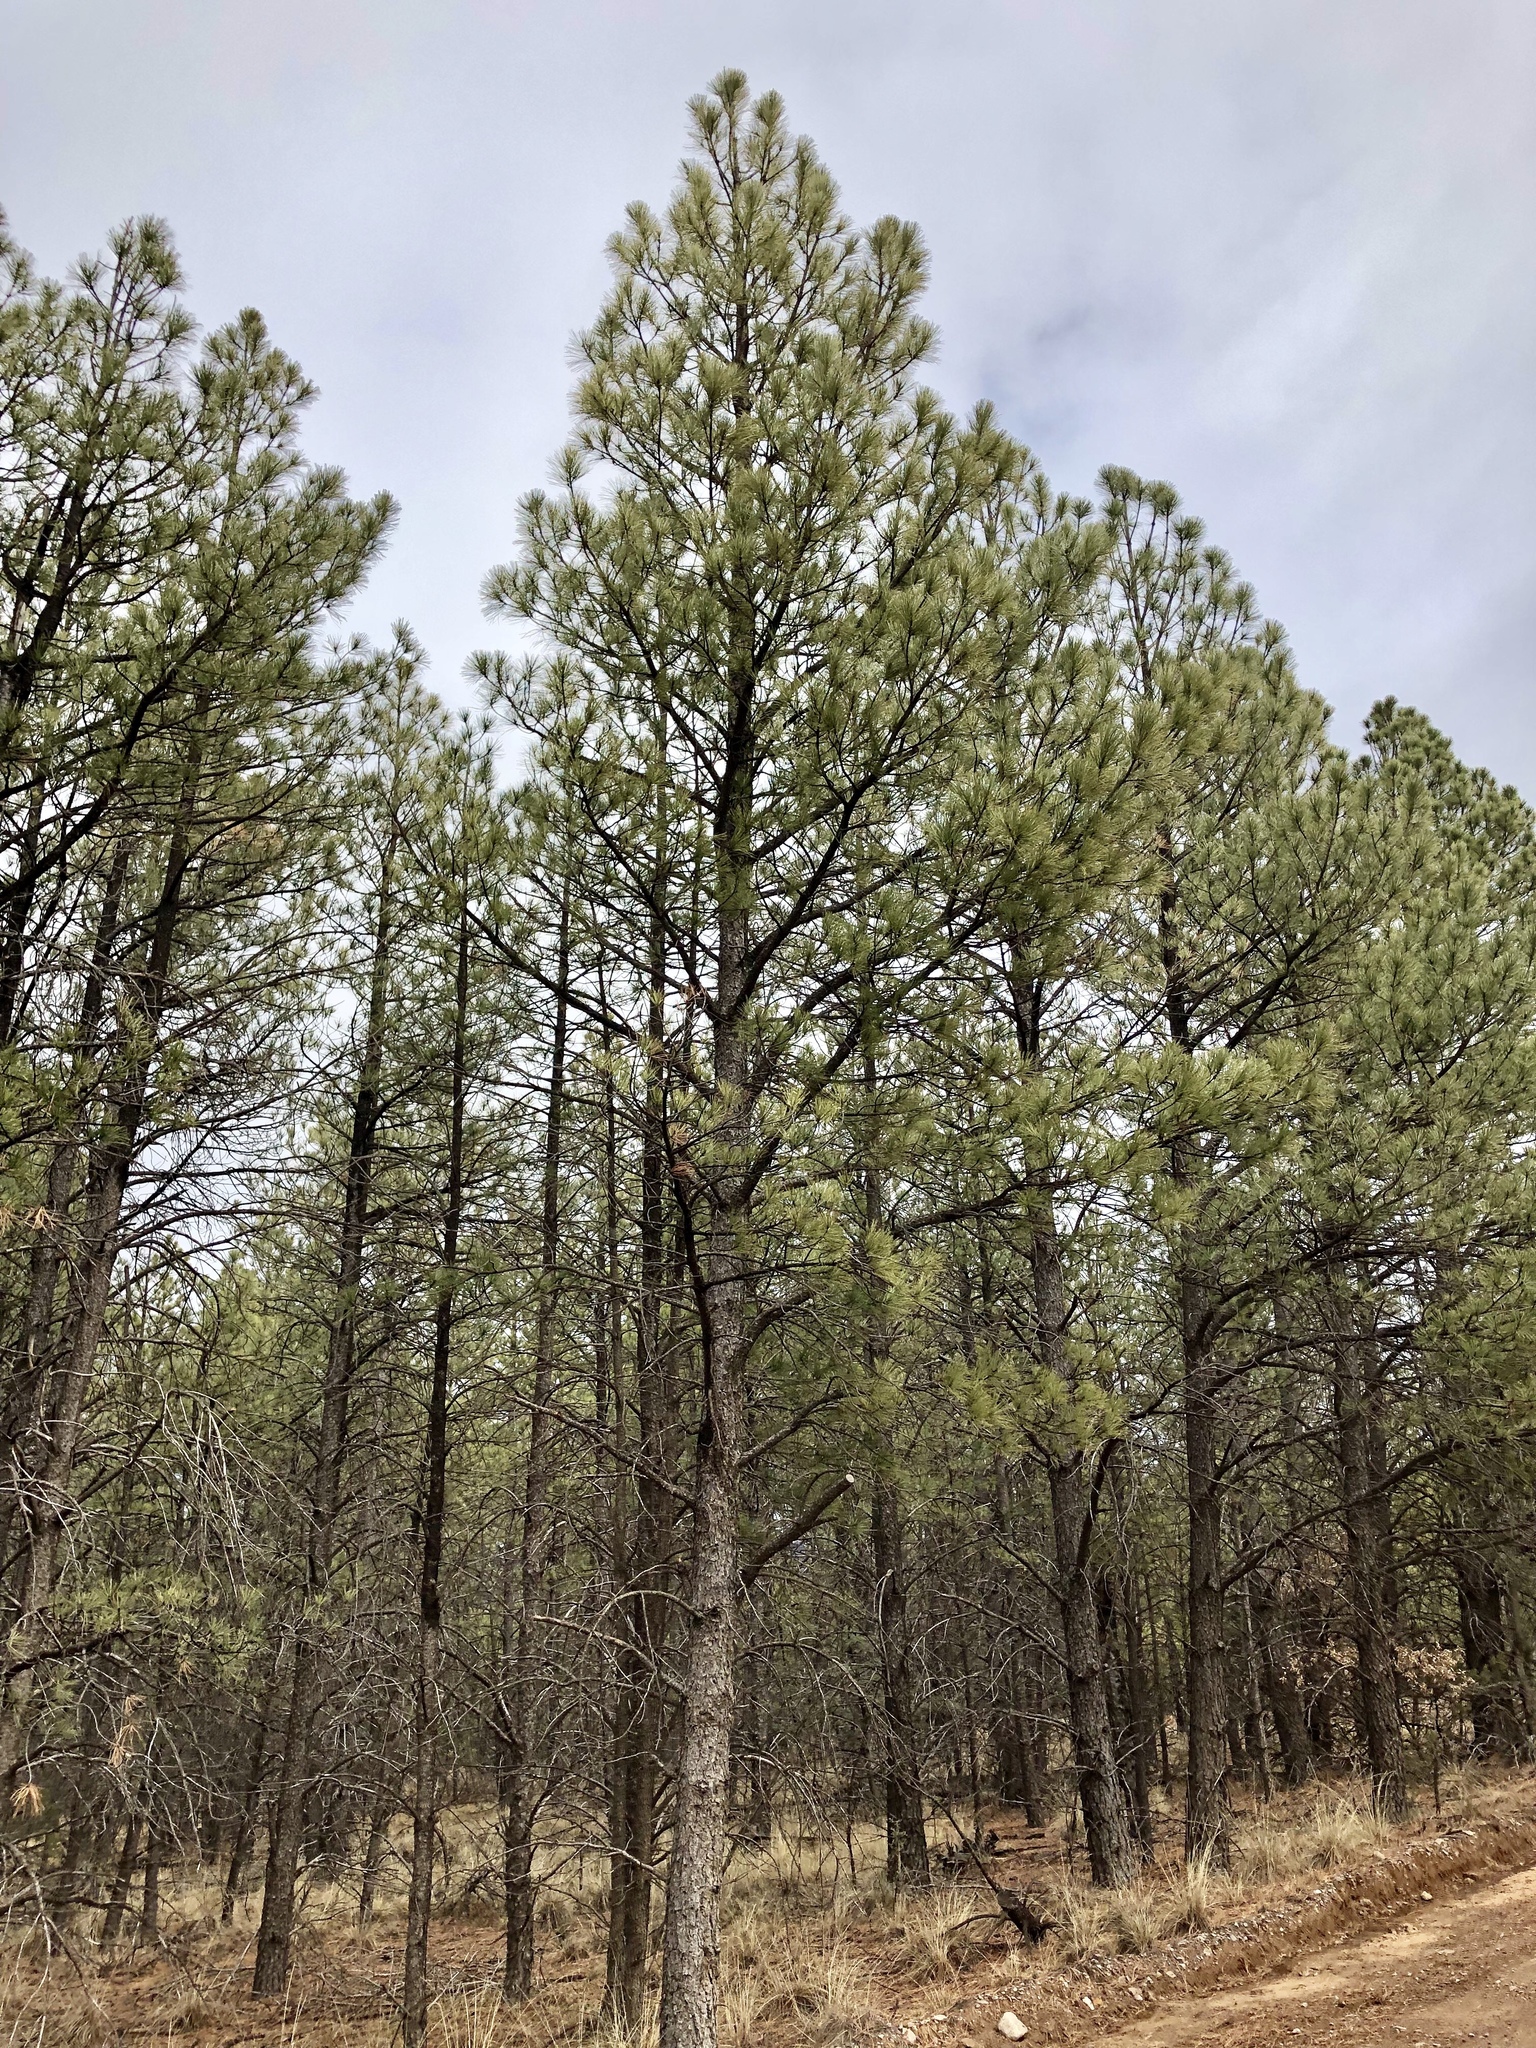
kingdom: Plantae
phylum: Tracheophyta
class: Pinopsida
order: Pinales
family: Pinaceae
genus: Pinus
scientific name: Pinus ponderosa
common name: Western yellow-pine
